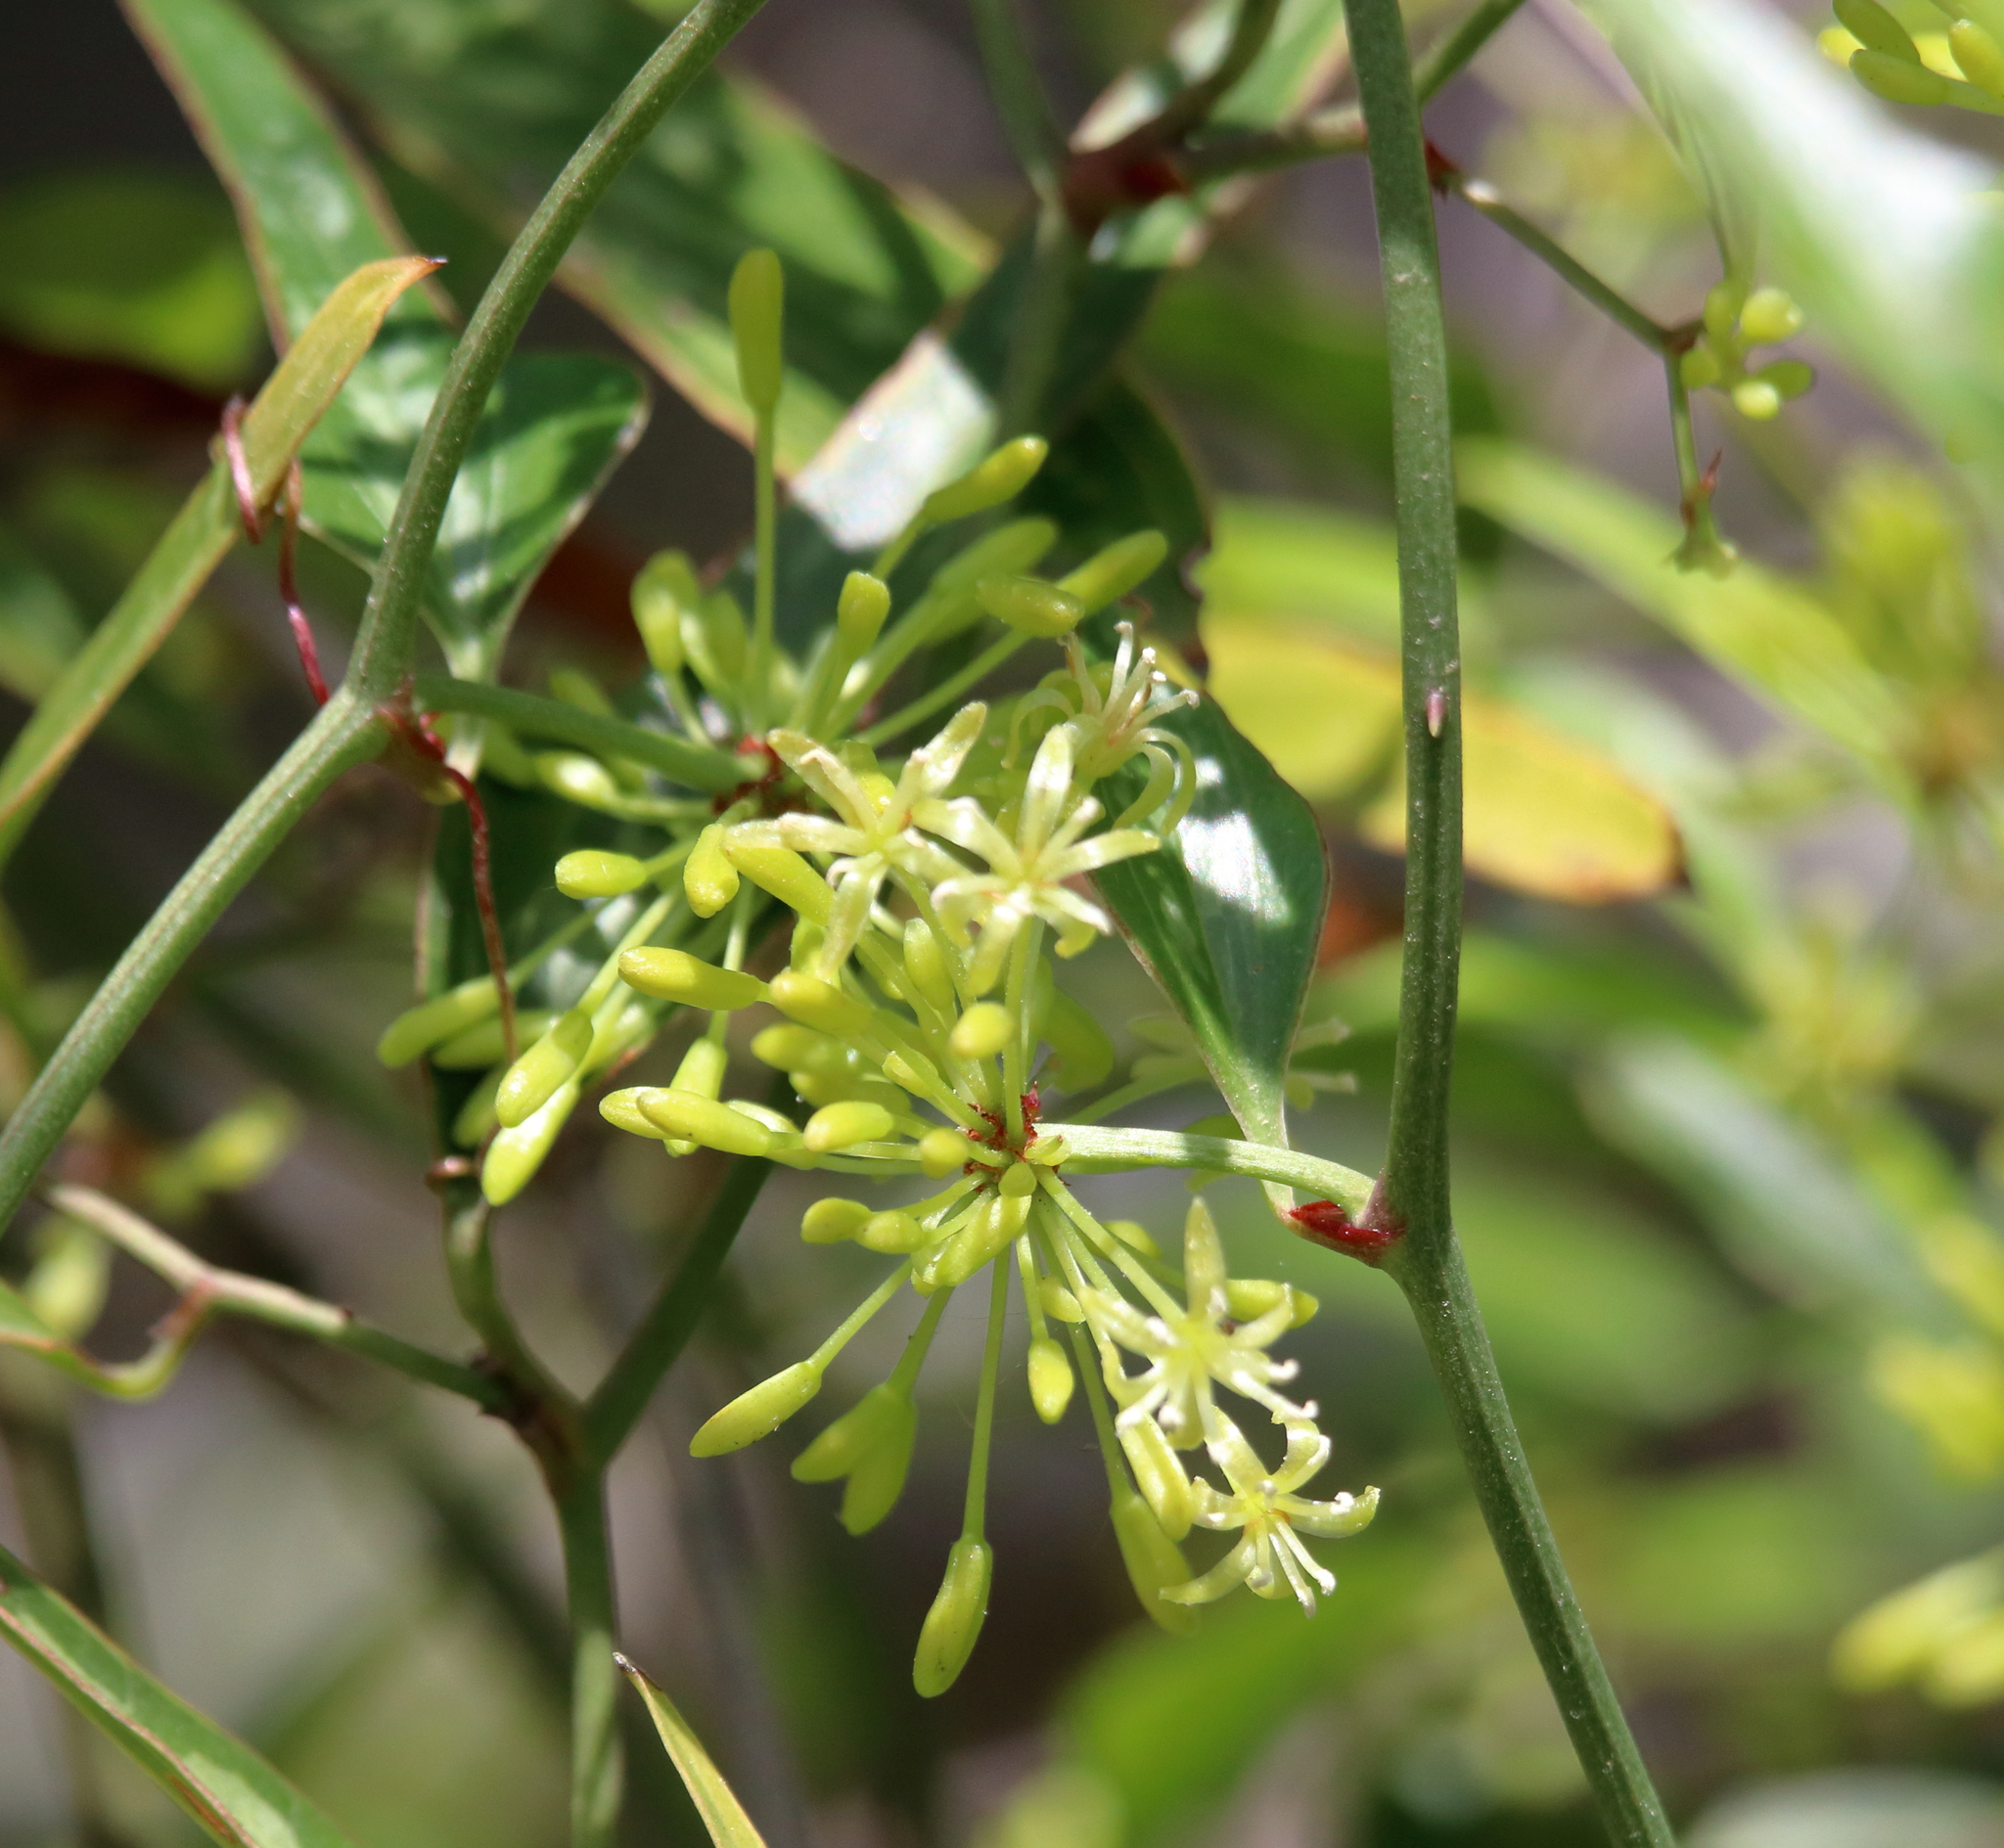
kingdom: Plantae
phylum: Tracheophyta
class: Liliopsida
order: Liliales
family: Smilacaceae
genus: Smilax
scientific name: Smilax auriculata
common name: Wild bamboo
